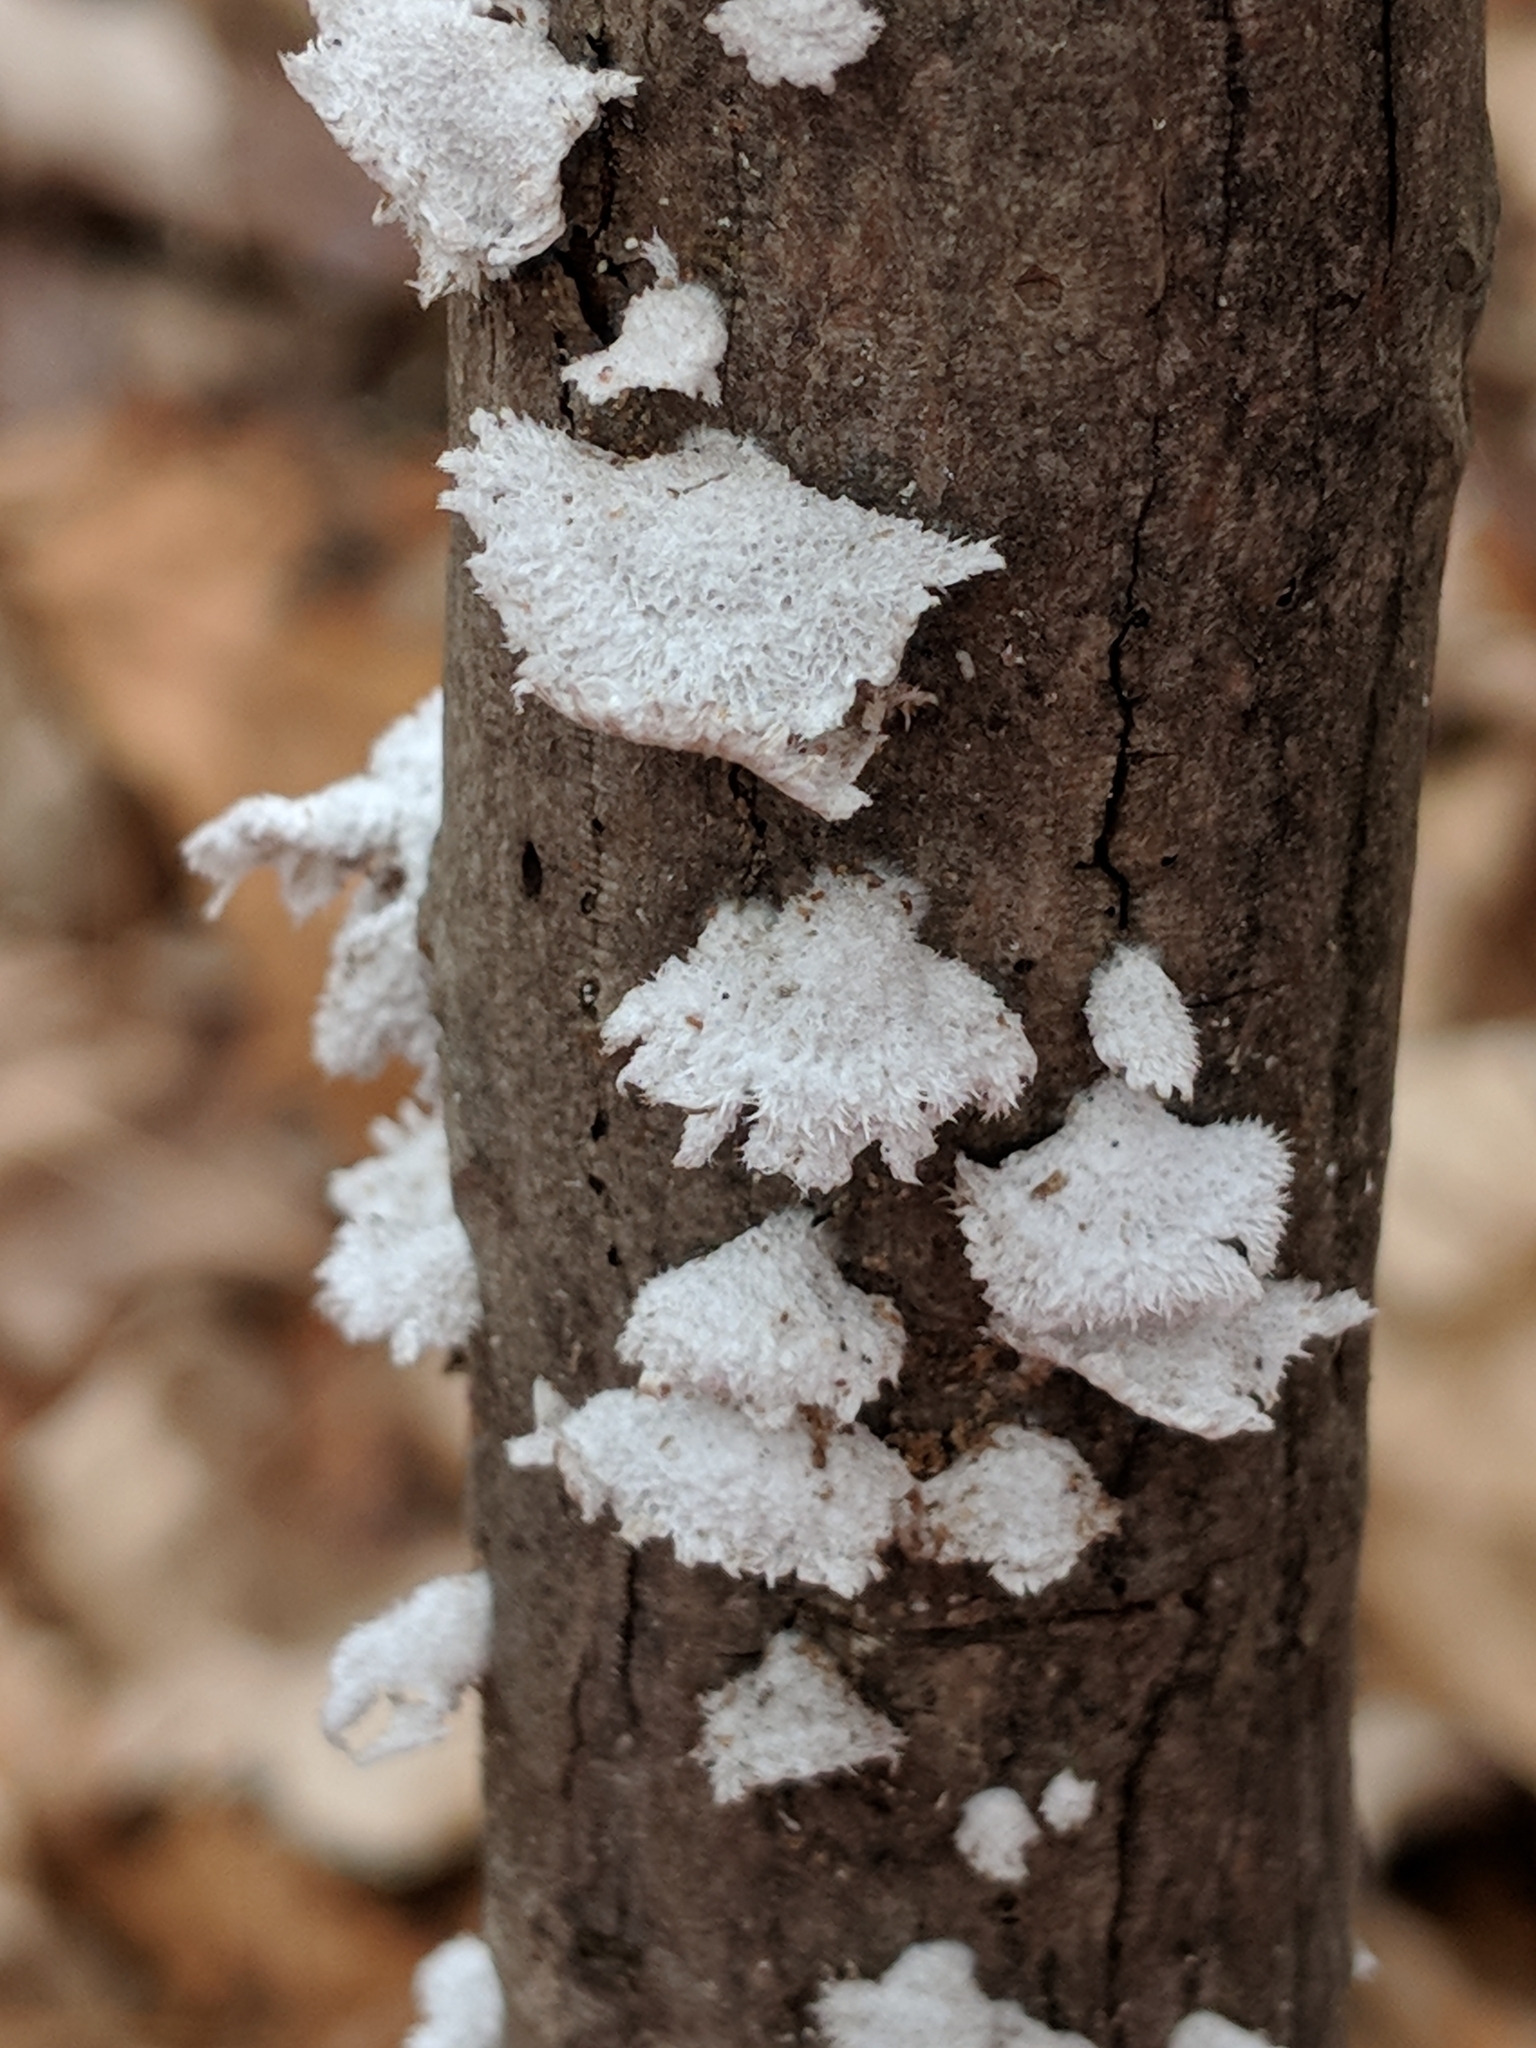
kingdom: Fungi
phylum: Basidiomycota
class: Agaricomycetes
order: Agaricales
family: Schizophyllaceae
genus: Schizophyllum
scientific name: Schizophyllum commune
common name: Common porecrust
